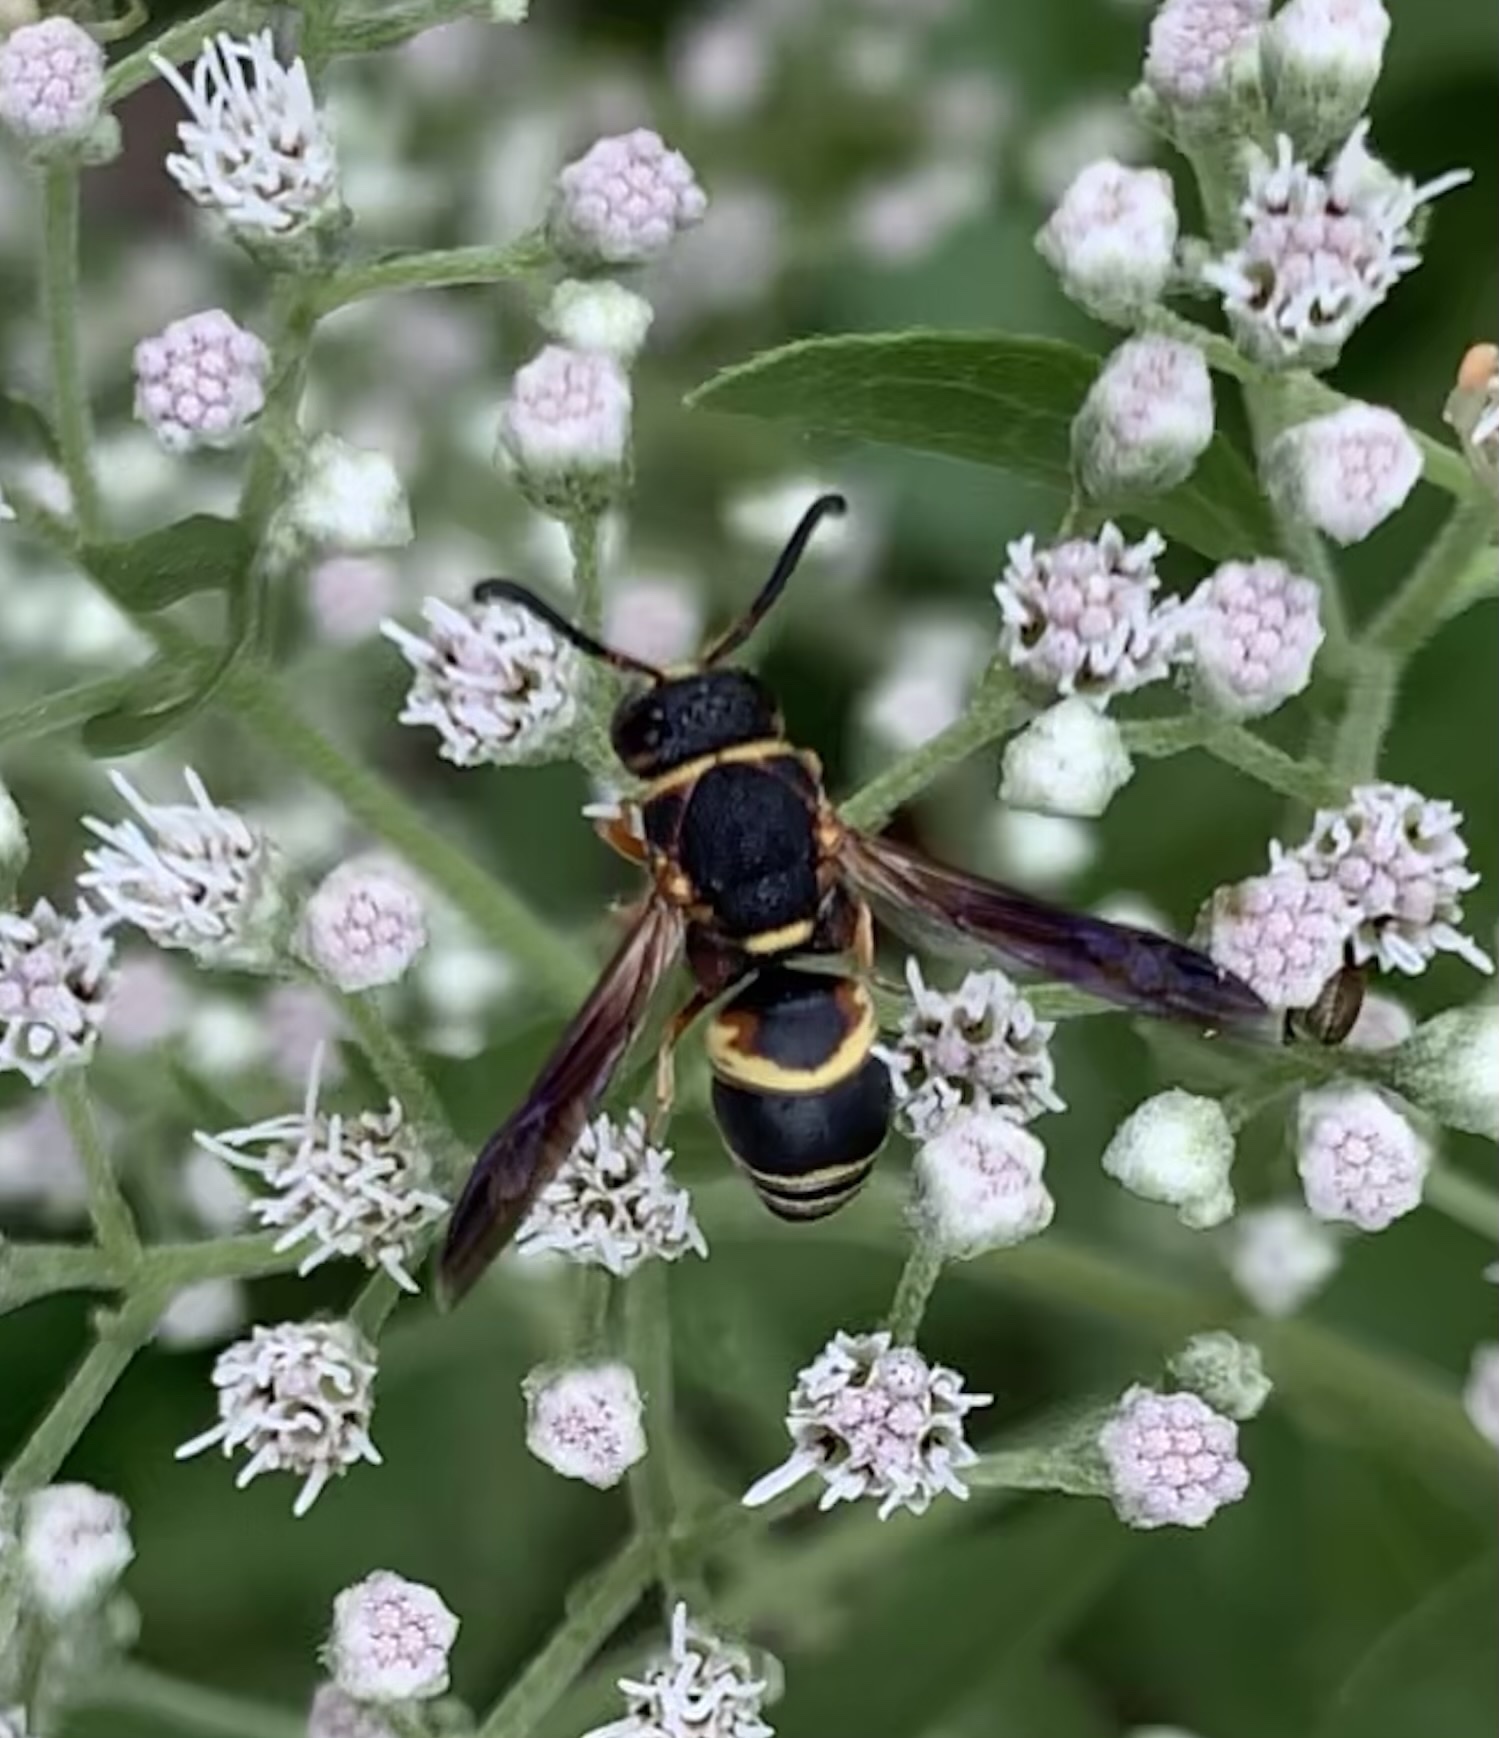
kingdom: Animalia
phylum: Arthropoda
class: Insecta
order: Hymenoptera
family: Eumenidae
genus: Euodynerus
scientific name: Euodynerus hidalgo
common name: Wasp
